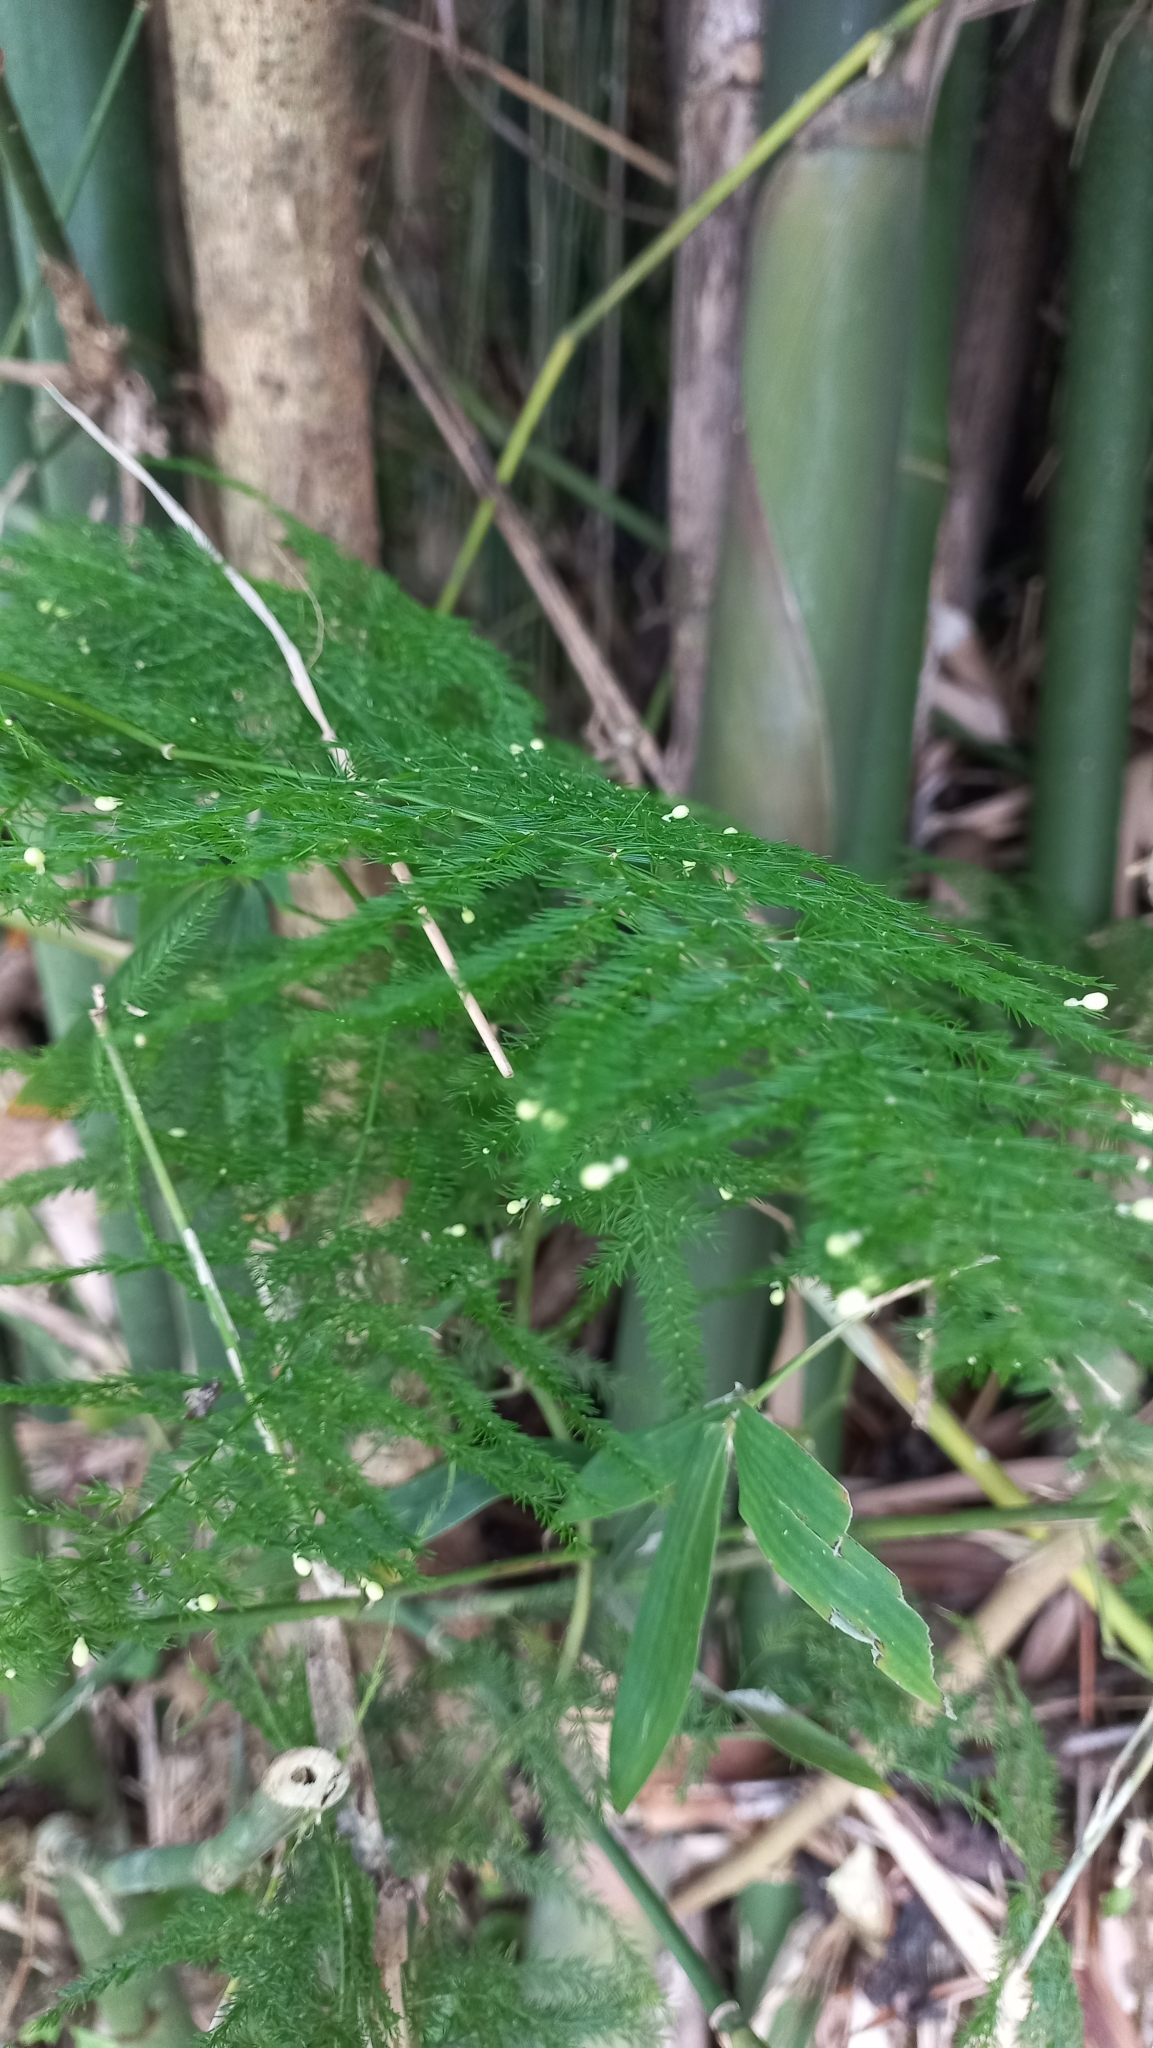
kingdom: Plantae
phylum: Tracheophyta
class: Liliopsida
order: Asparagales
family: Asparagaceae
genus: Asparagus
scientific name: Asparagus setaceus
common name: Common asparagus fern
